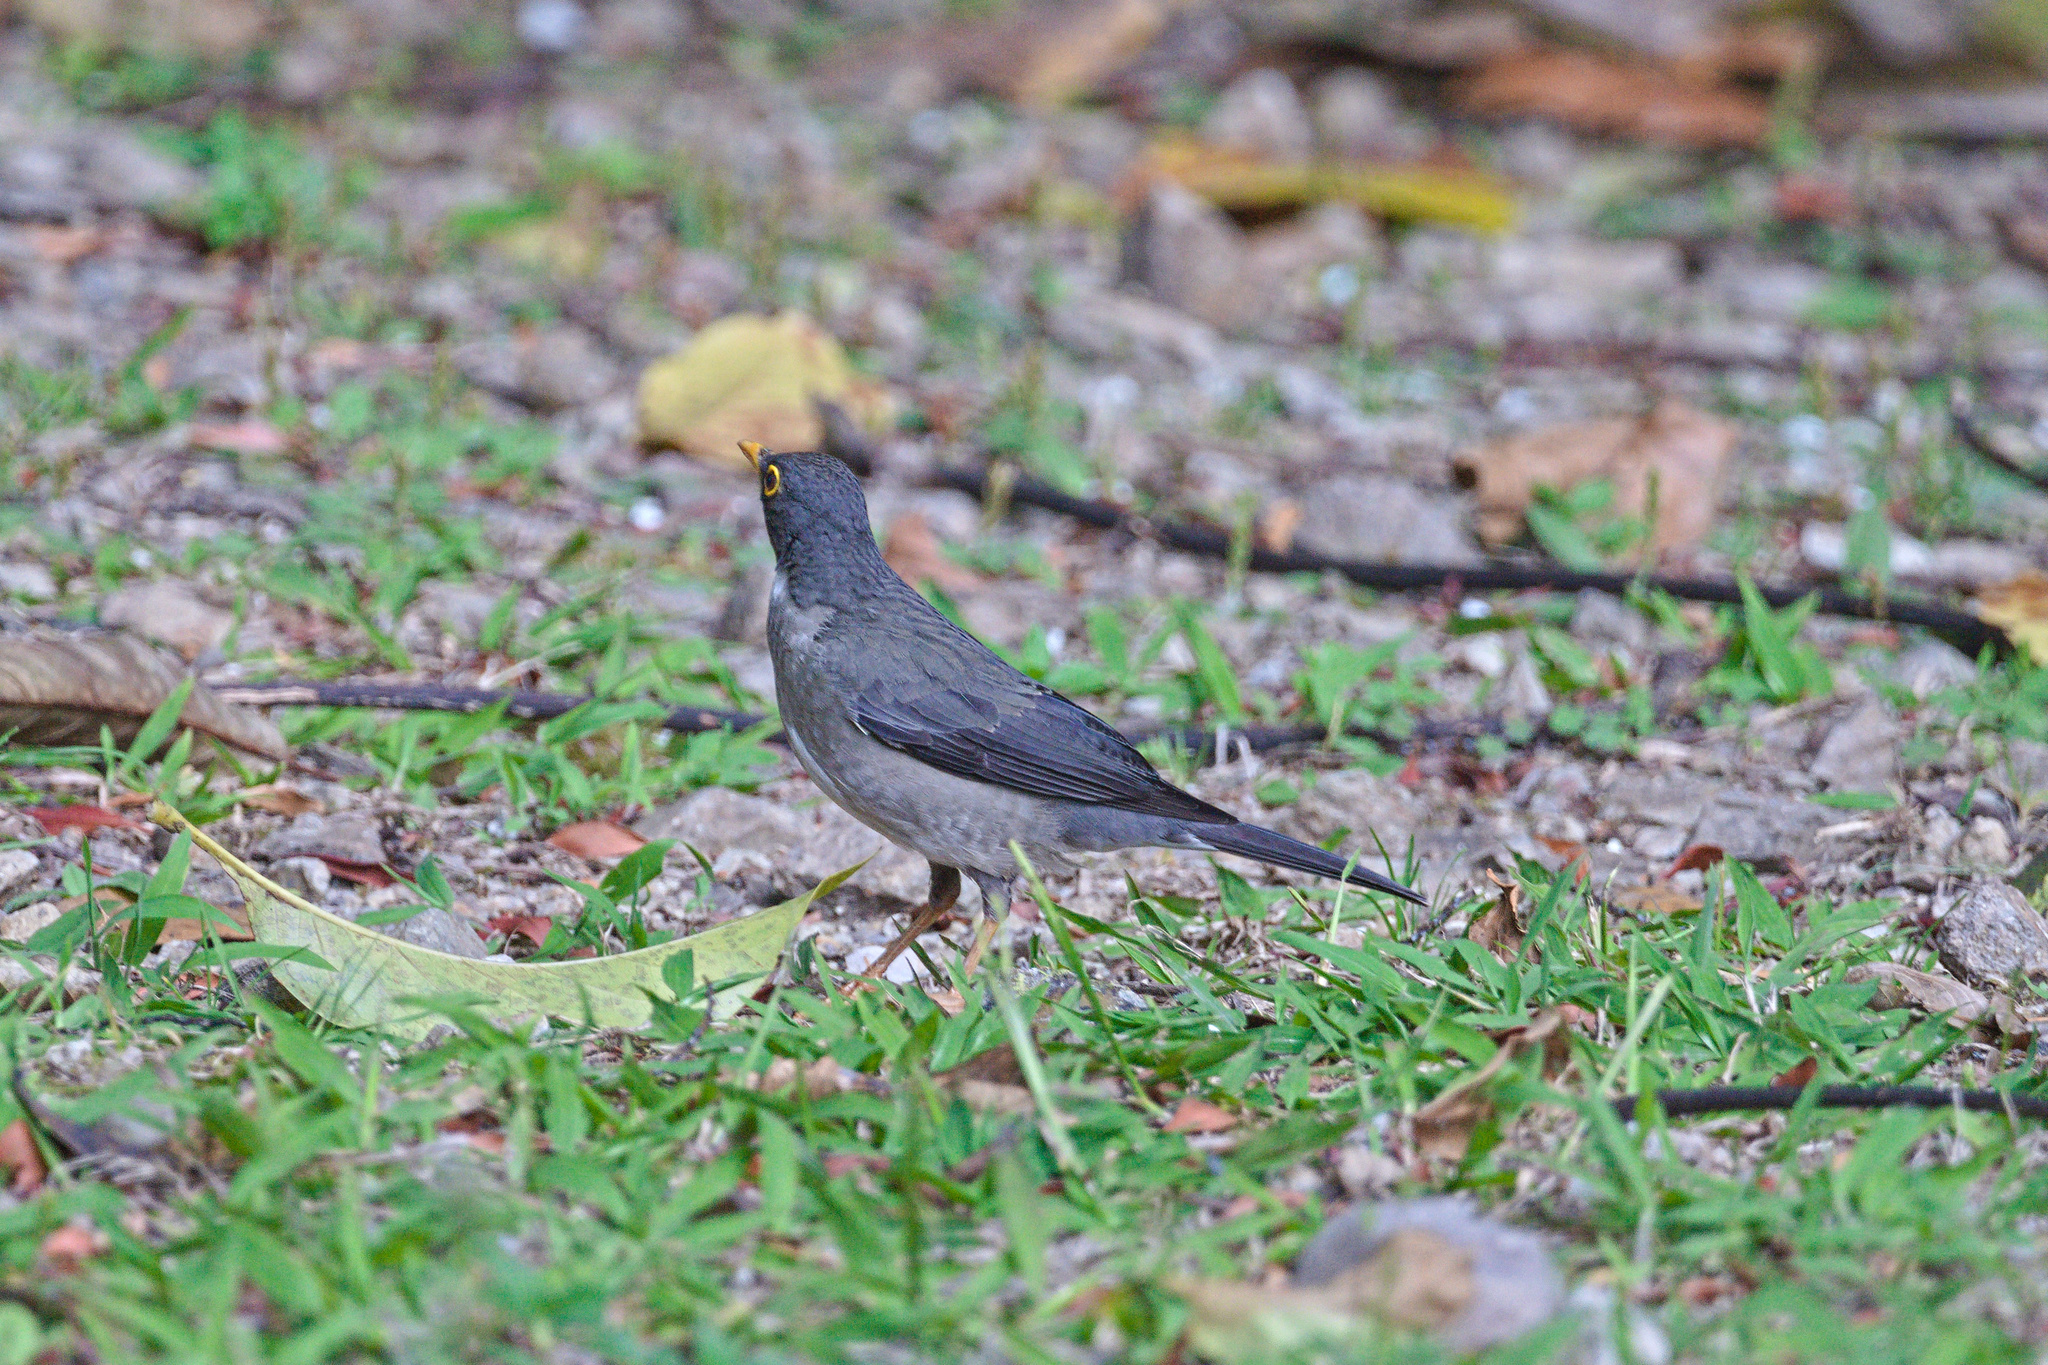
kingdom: Animalia
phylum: Chordata
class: Aves
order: Passeriformes
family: Turdidae
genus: Turdus
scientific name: Turdus assimilis
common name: White-throated thrush
